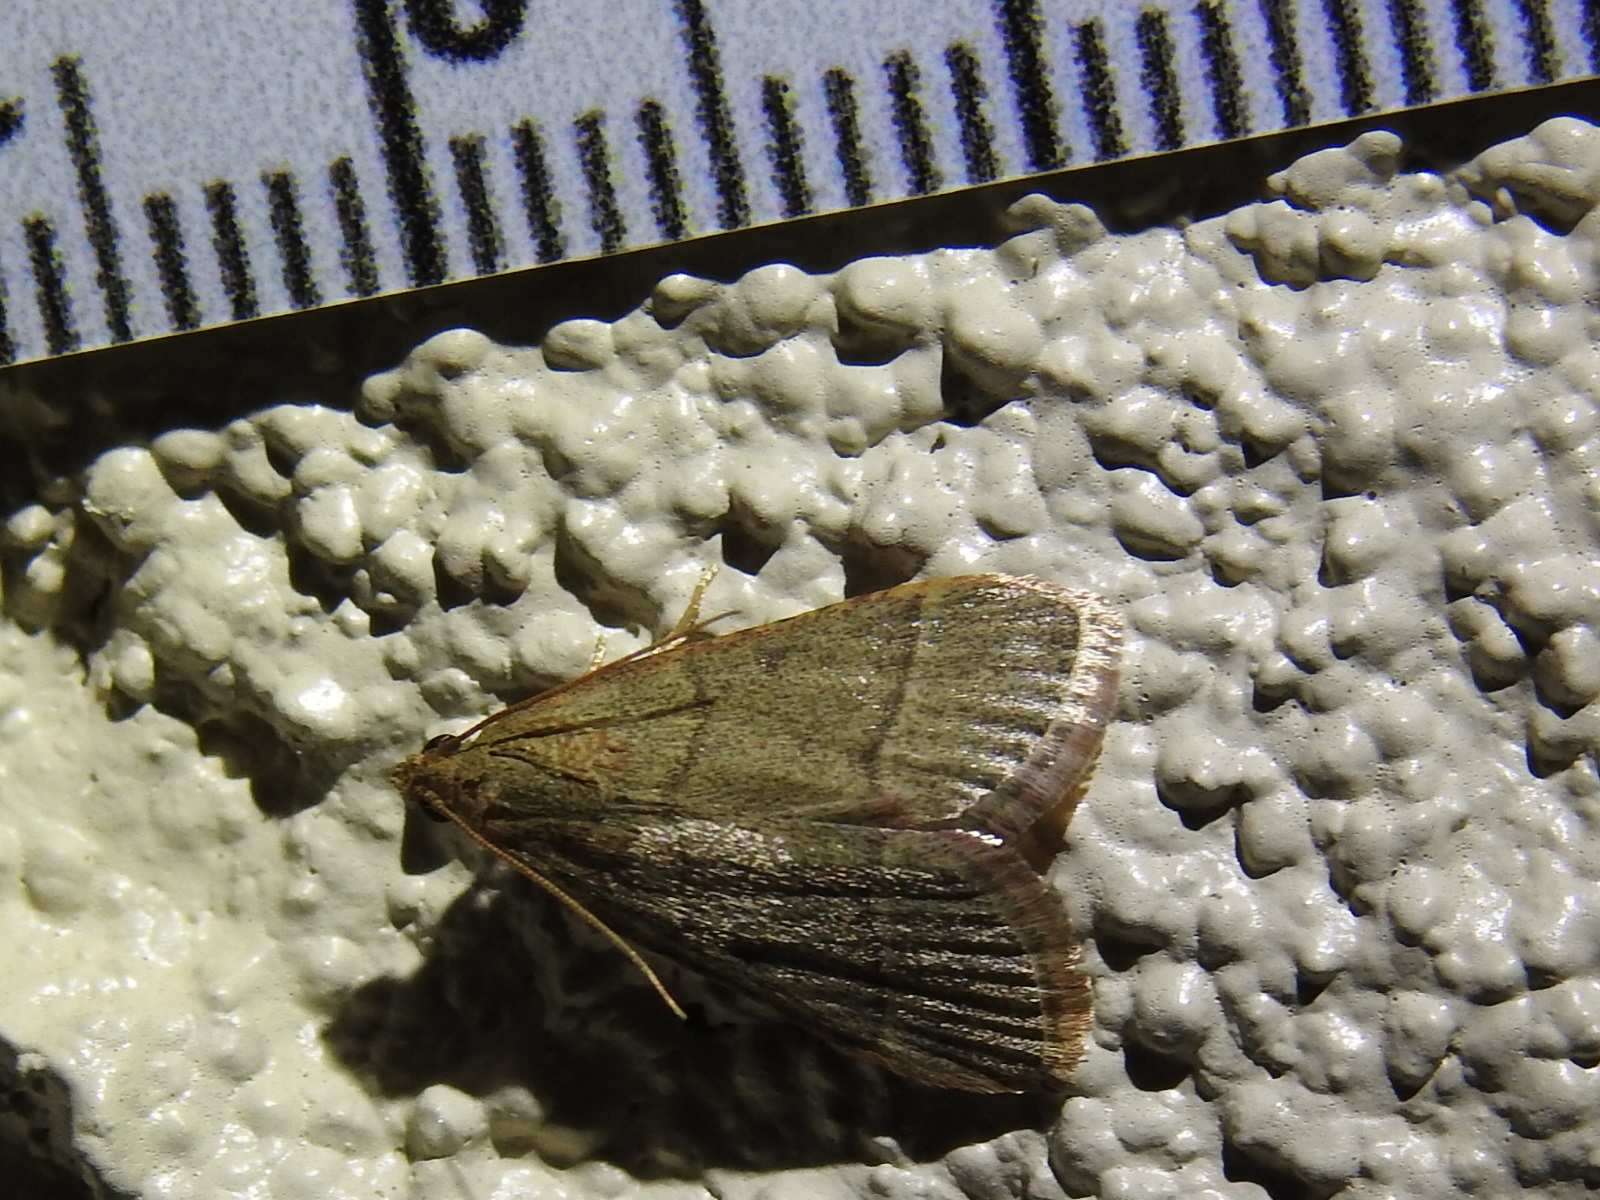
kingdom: Animalia
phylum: Arthropoda
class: Insecta
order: Lepidoptera
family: Pyralidae
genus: Hypsopygia
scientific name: Hypsopygia nostralis
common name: Southern hayworm moth
